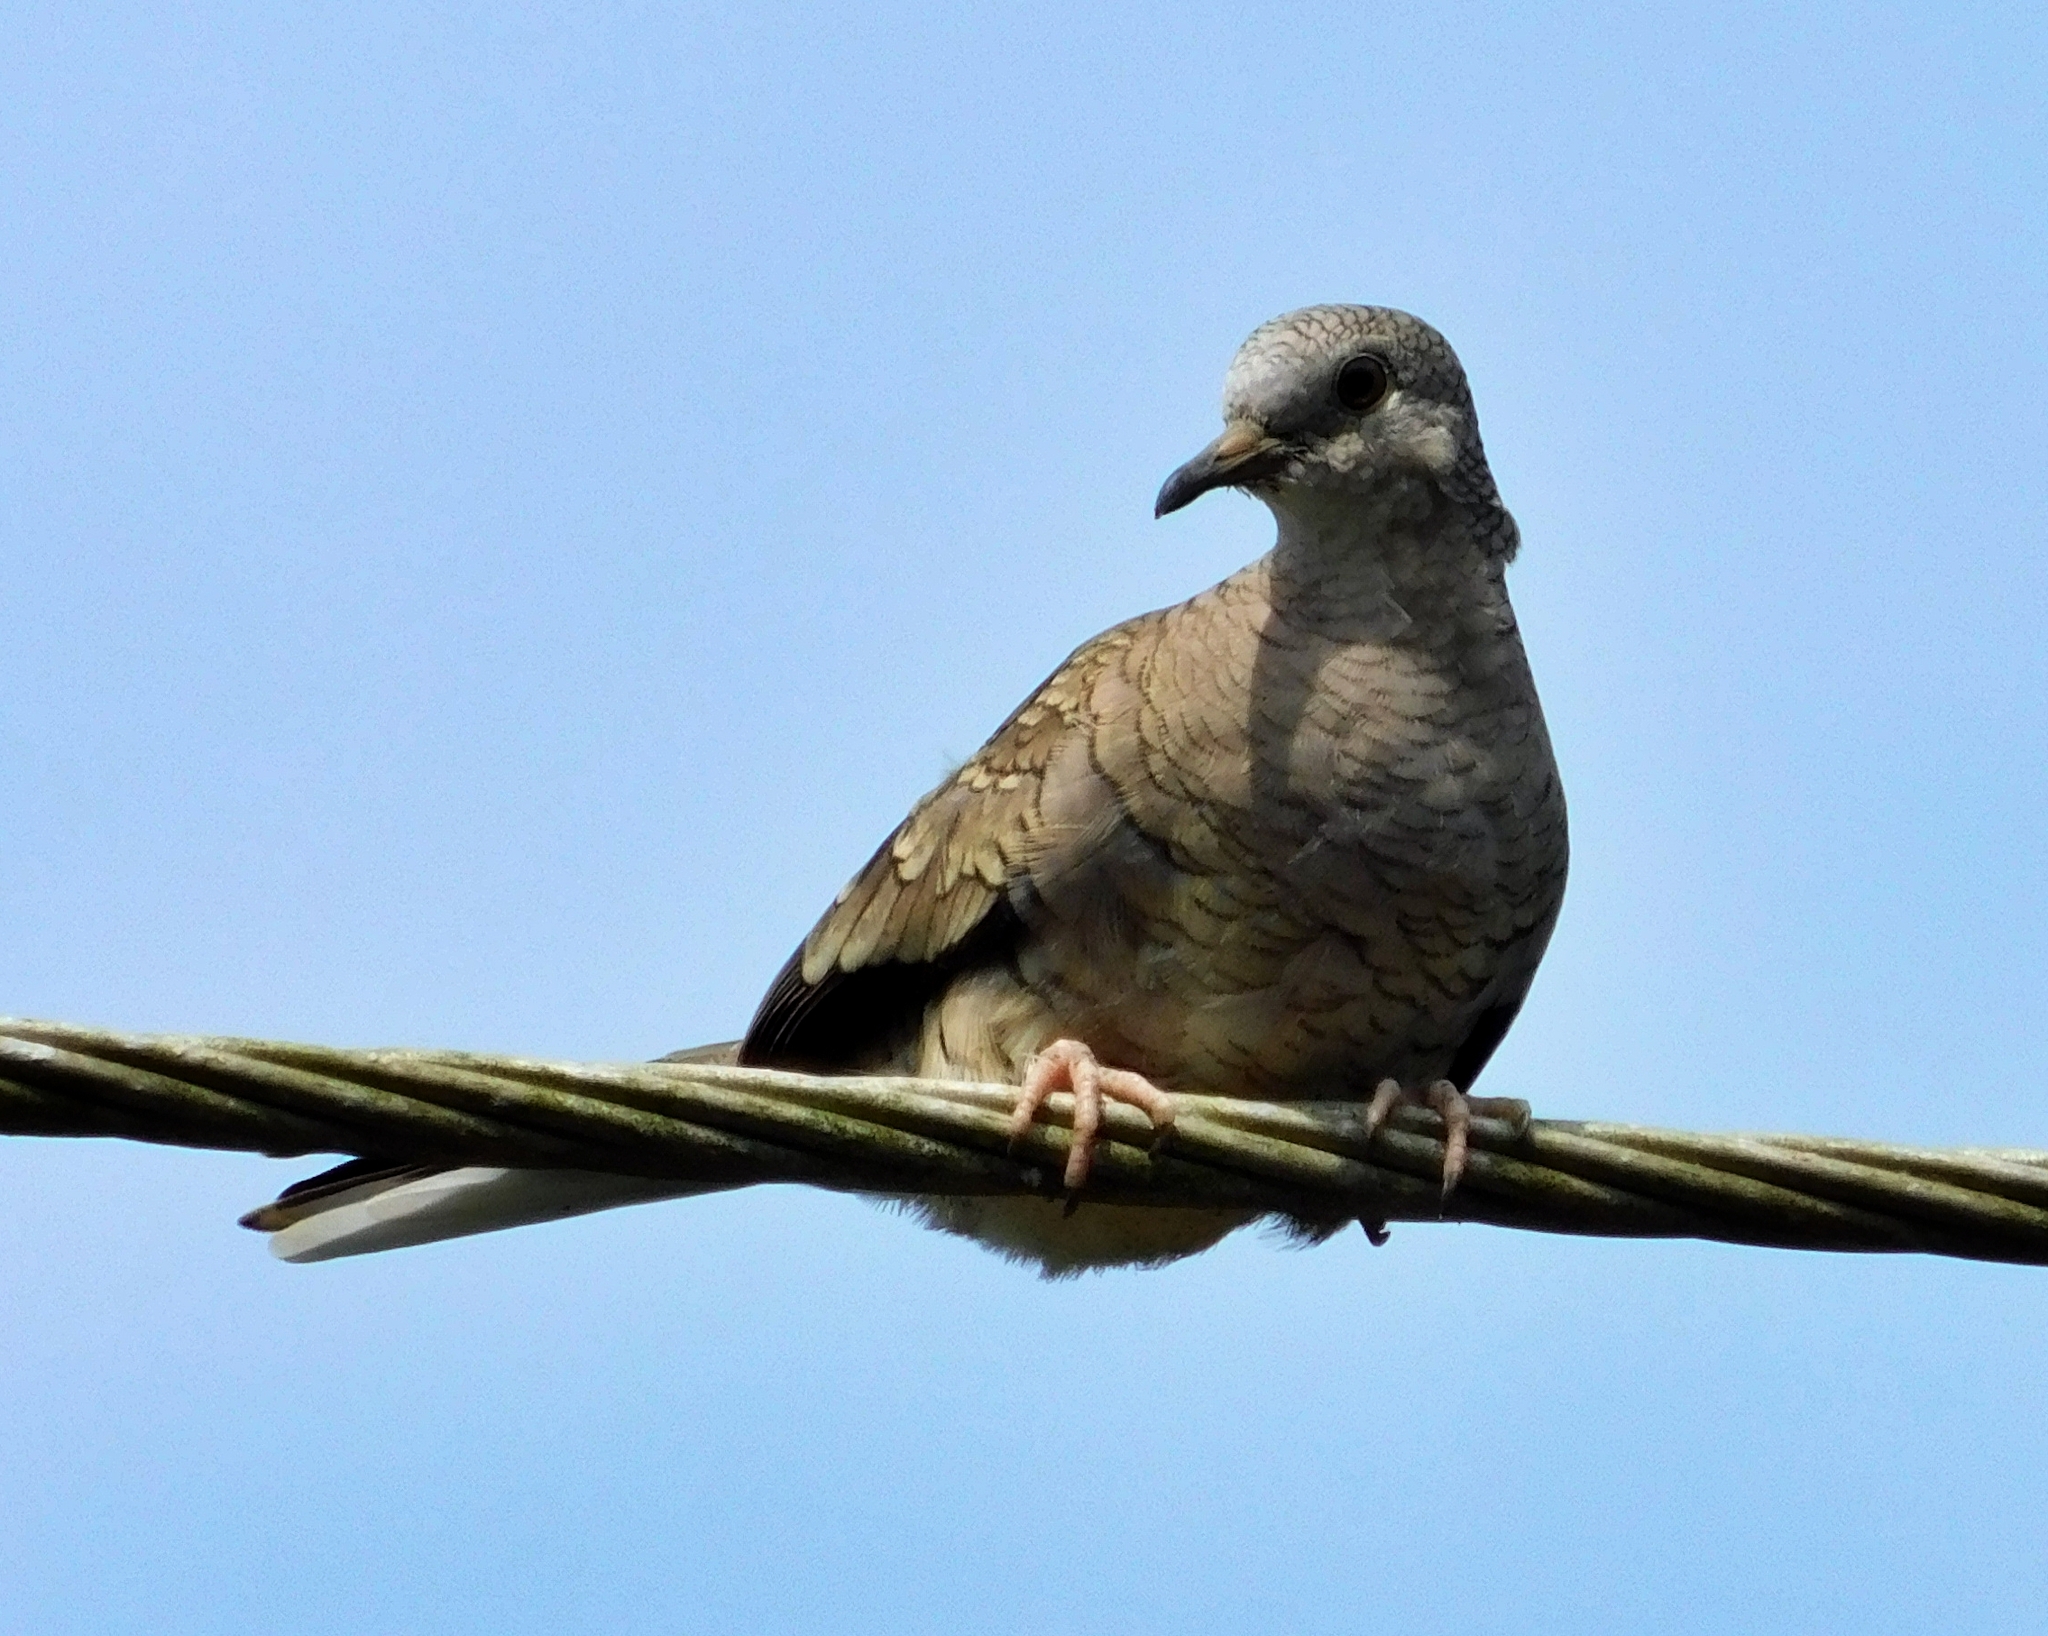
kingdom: Animalia
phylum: Chordata
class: Aves
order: Columbiformes
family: Columbidae
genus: Columbina
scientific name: Columbina inca
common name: Inca dove
